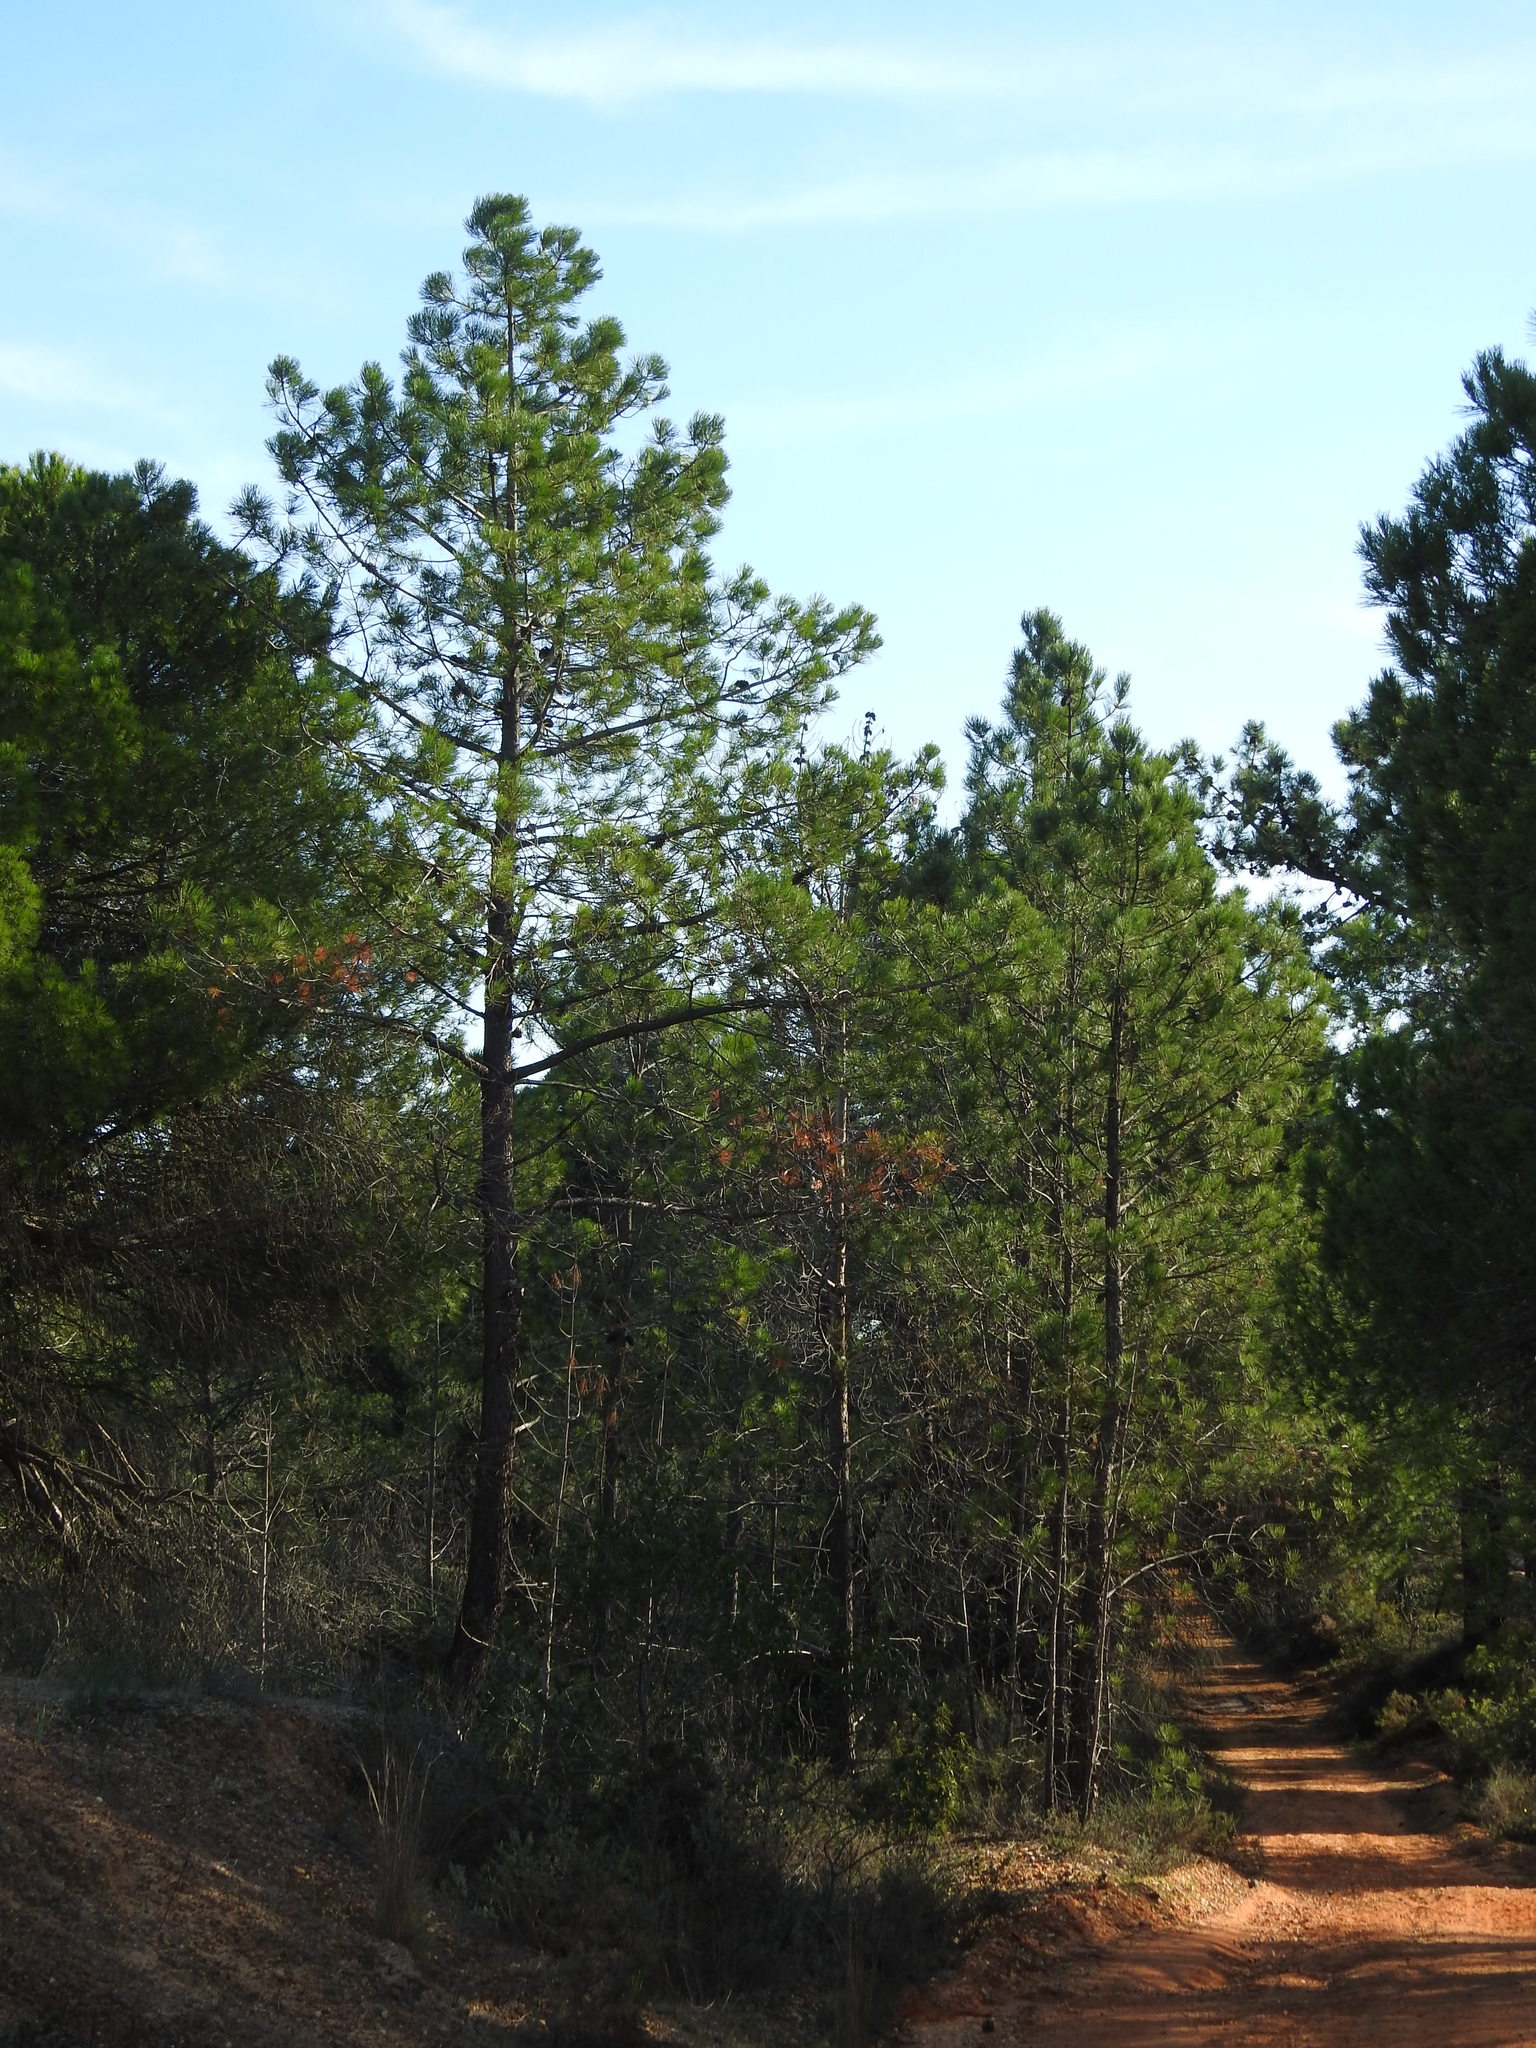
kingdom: Plantae
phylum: Tracheophyta
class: Pinopsida
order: Pinales
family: Pinaceae
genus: Pinus
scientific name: Pinus pinaster
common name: Maritime pine
